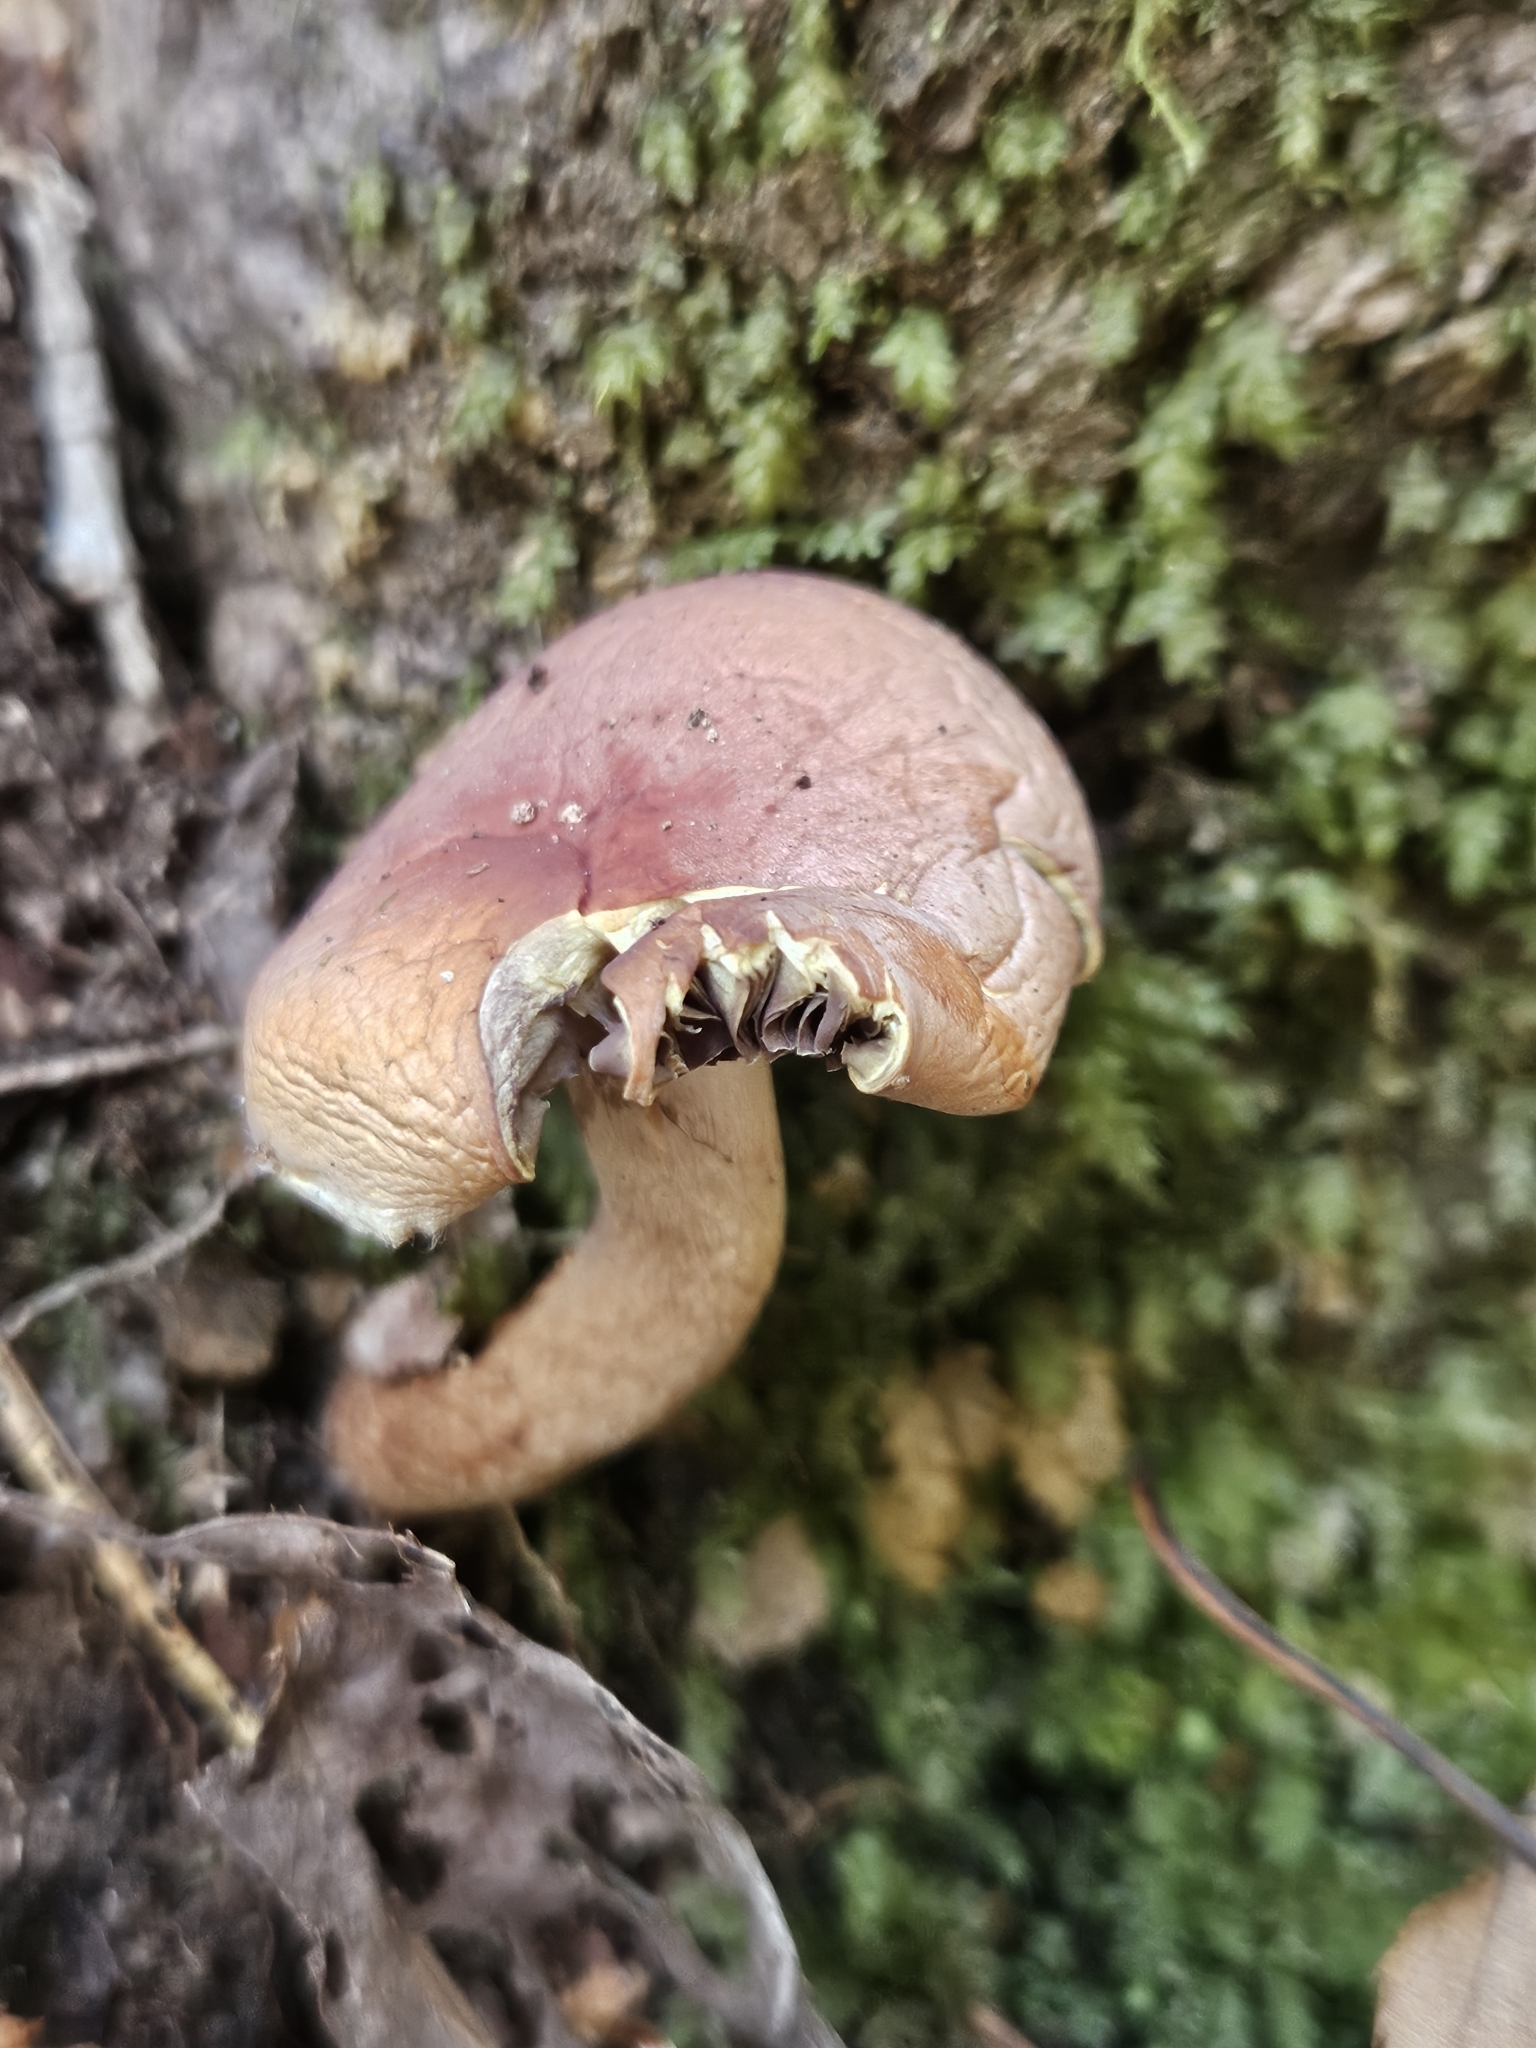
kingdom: Fungi
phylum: Basidiomycota
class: Agaricomycetes
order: Agaricales
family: Strophariaceae
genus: Hypholoma
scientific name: Hypholoma lateritium
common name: Brick caps
